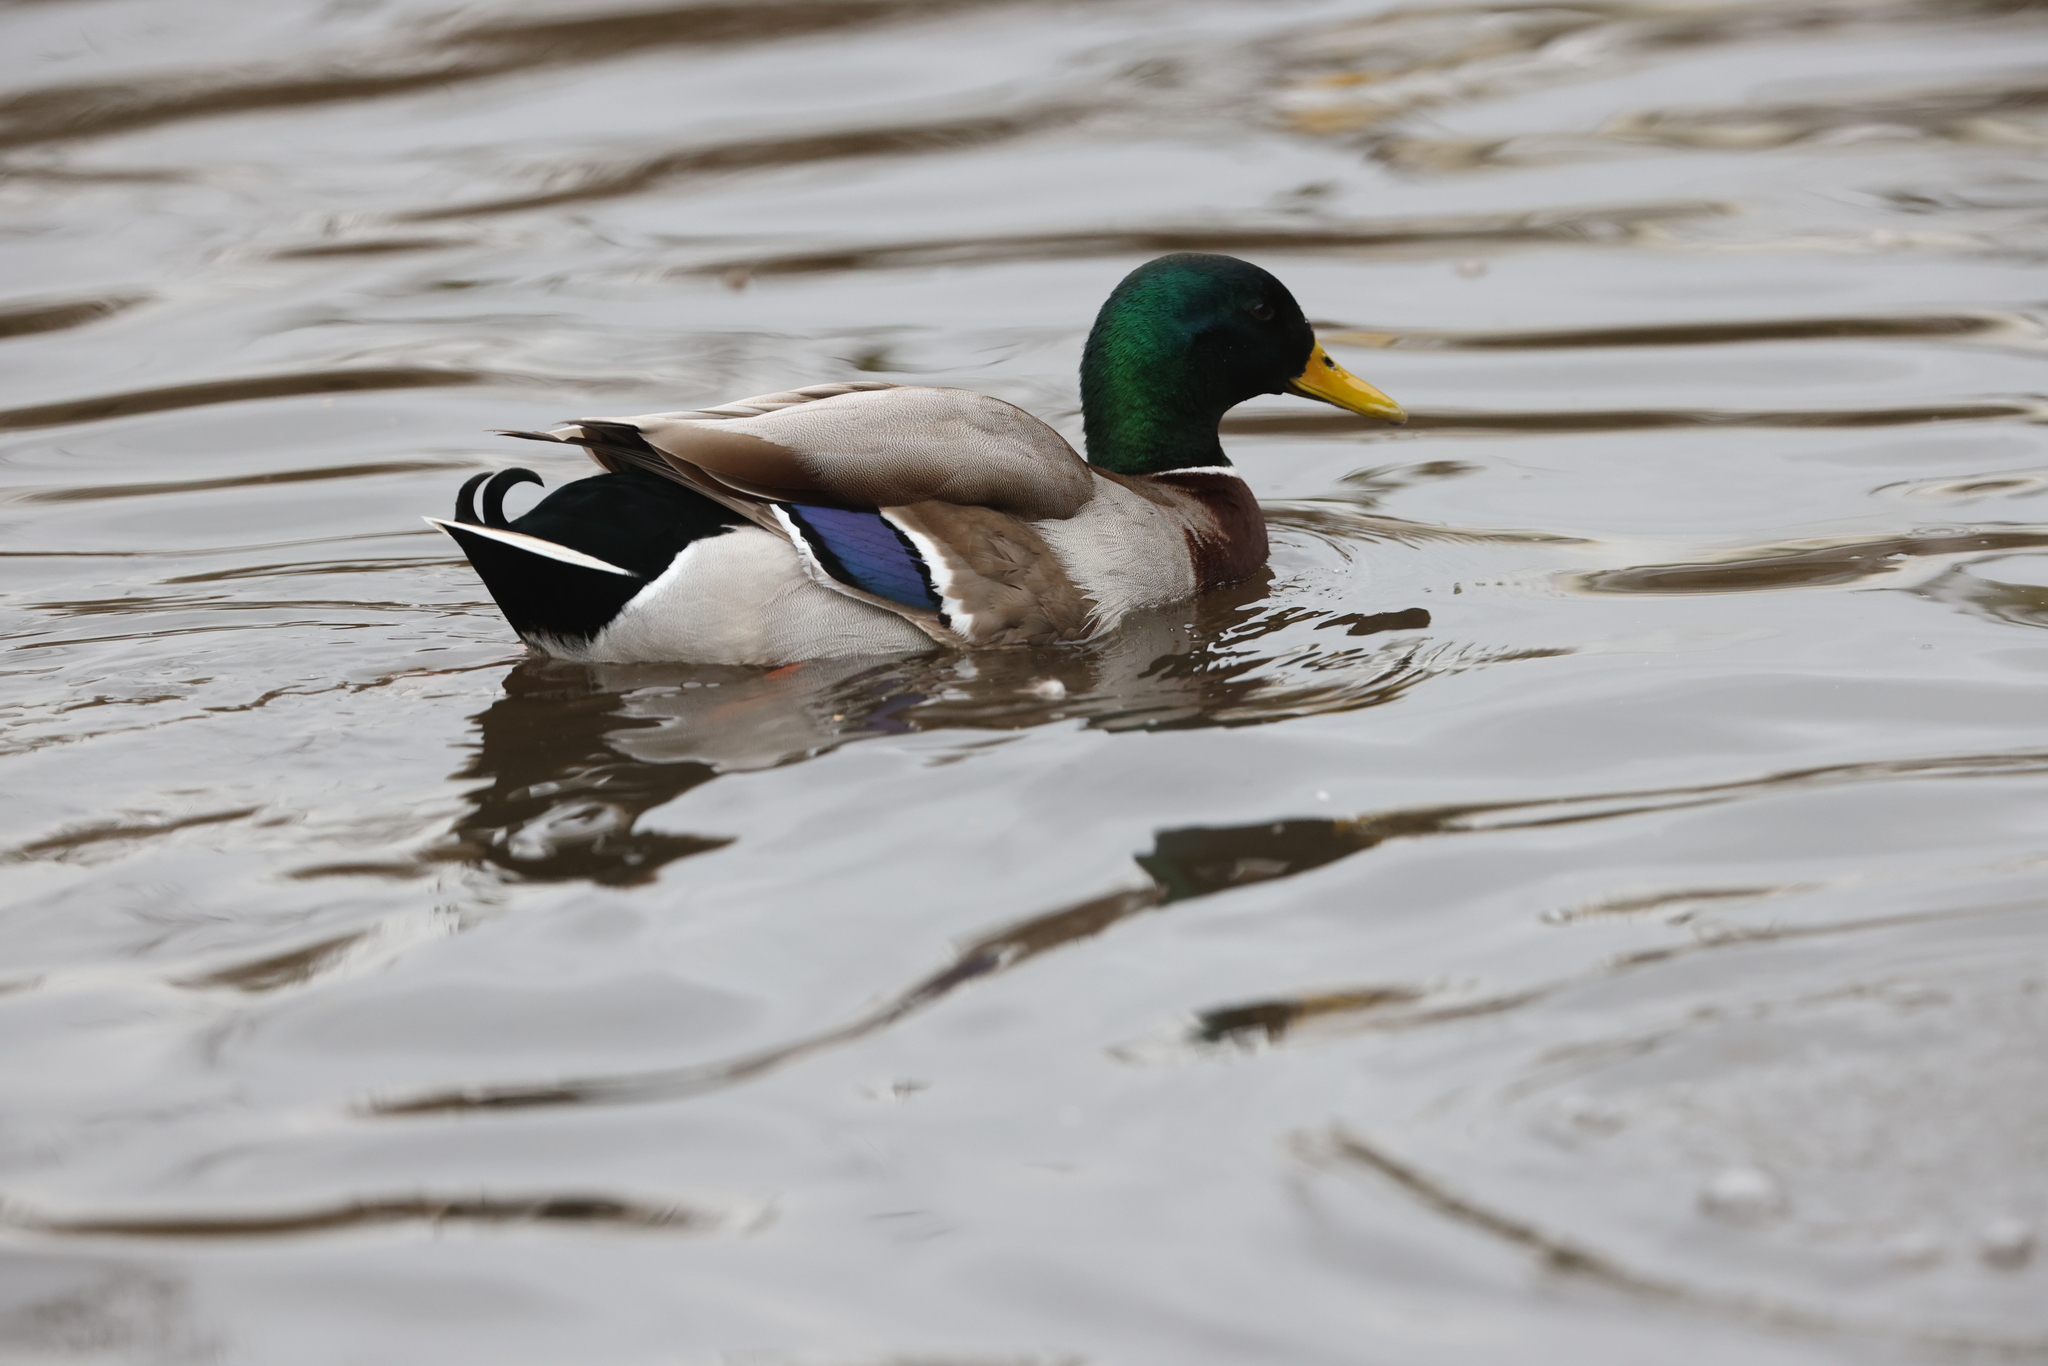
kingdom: Animalia
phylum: Chordata
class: Aves
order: Anseriformes
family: Anatidae
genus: Anas
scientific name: Anas platyrhynchos
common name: Mallard
